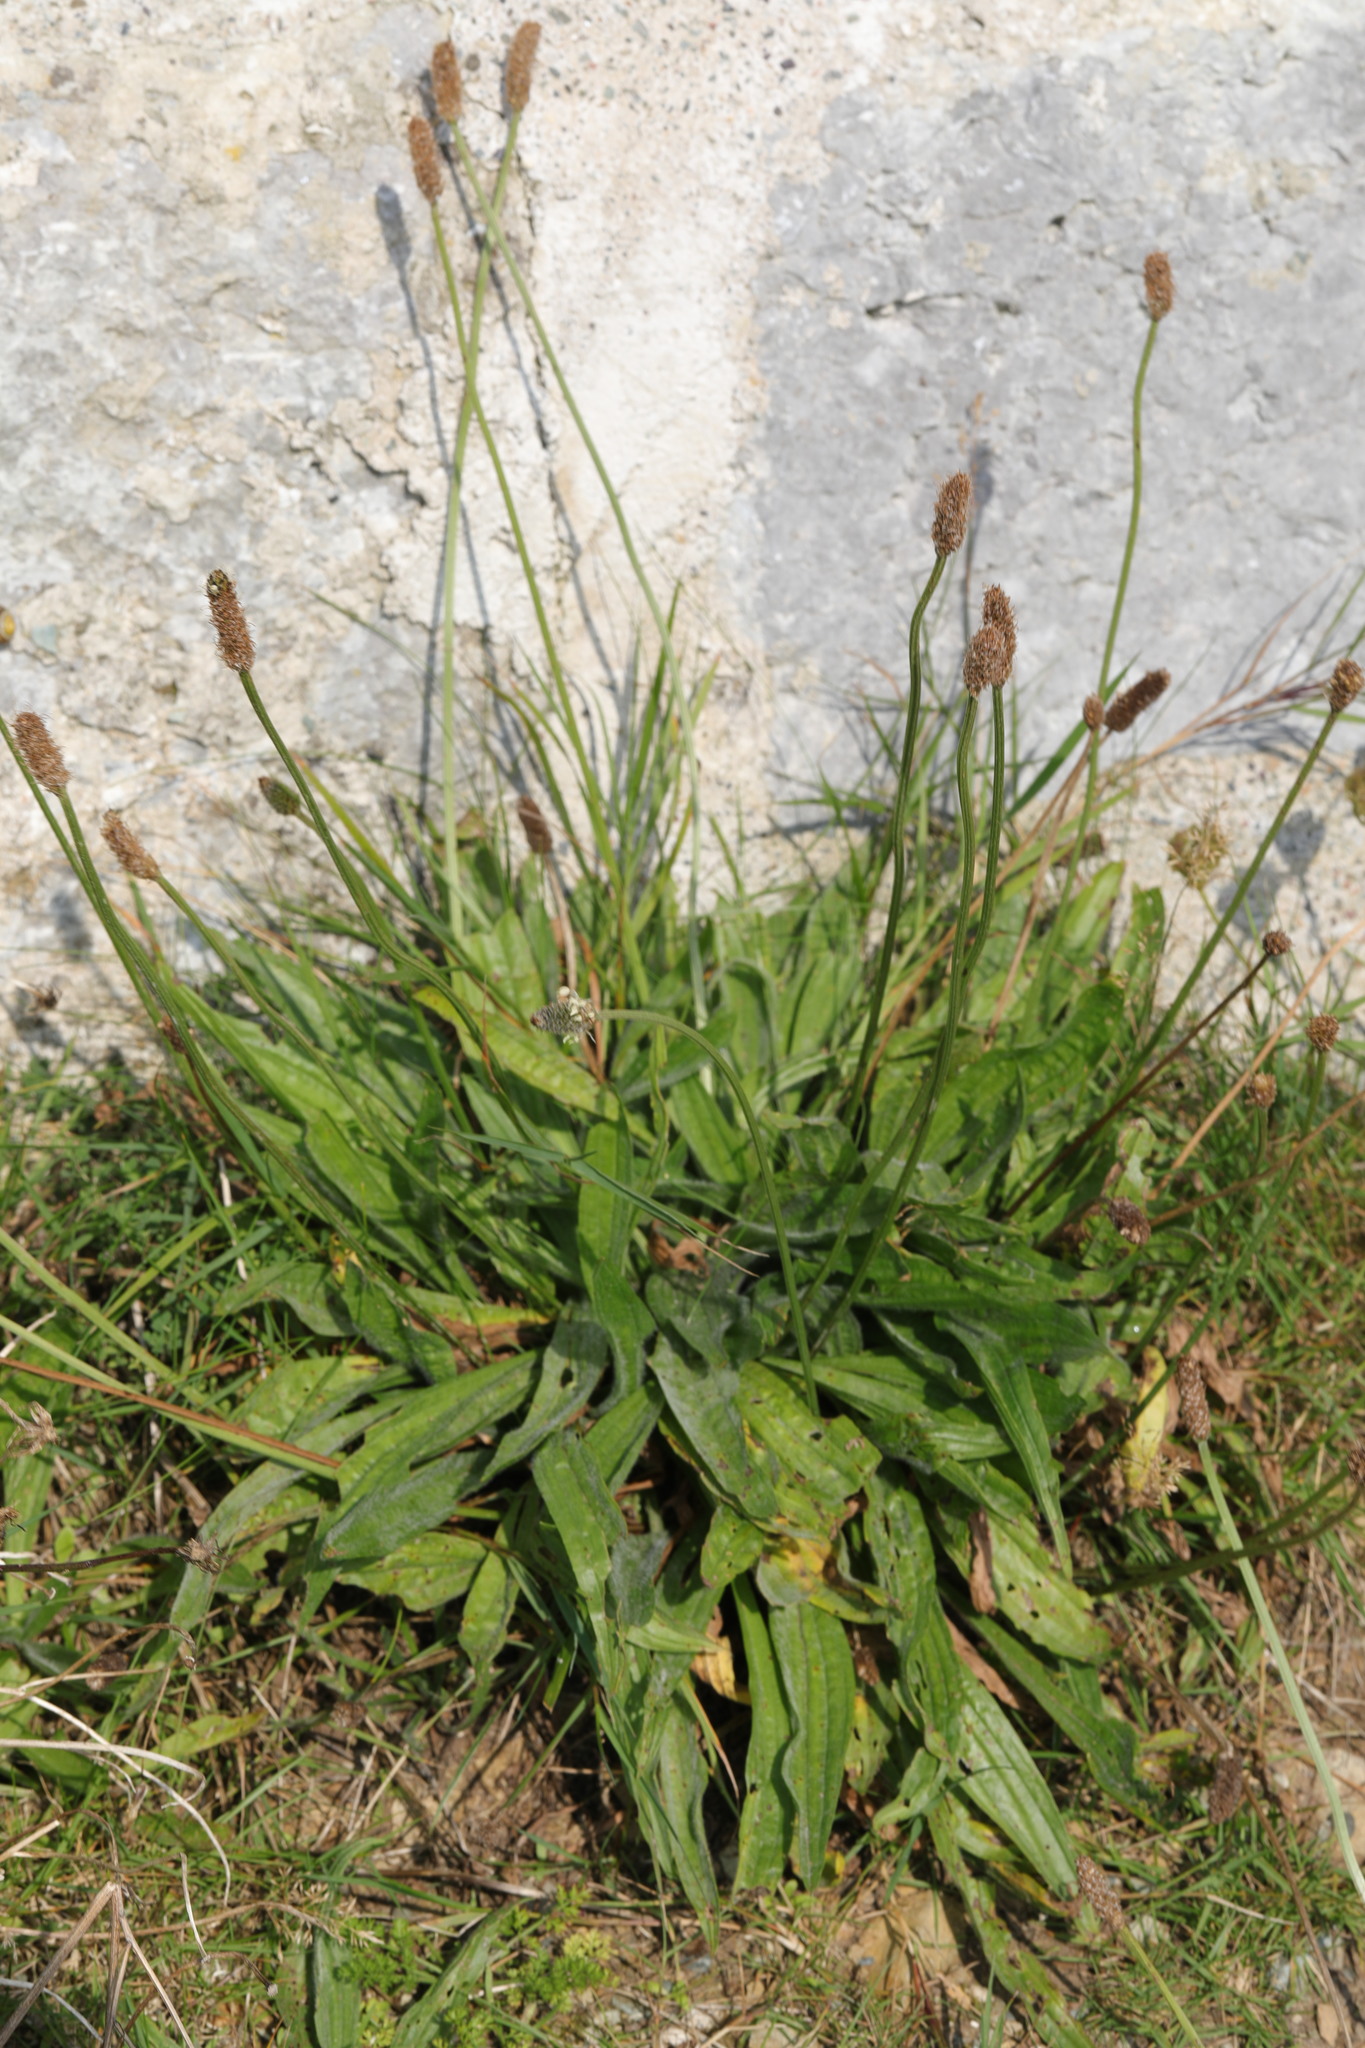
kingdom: Plantae
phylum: Tracheophyta
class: Magnoliopsida
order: Lamiales
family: Plantaginaceae
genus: Plantago
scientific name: Plantago lanceolata
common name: Ribwort plantain
